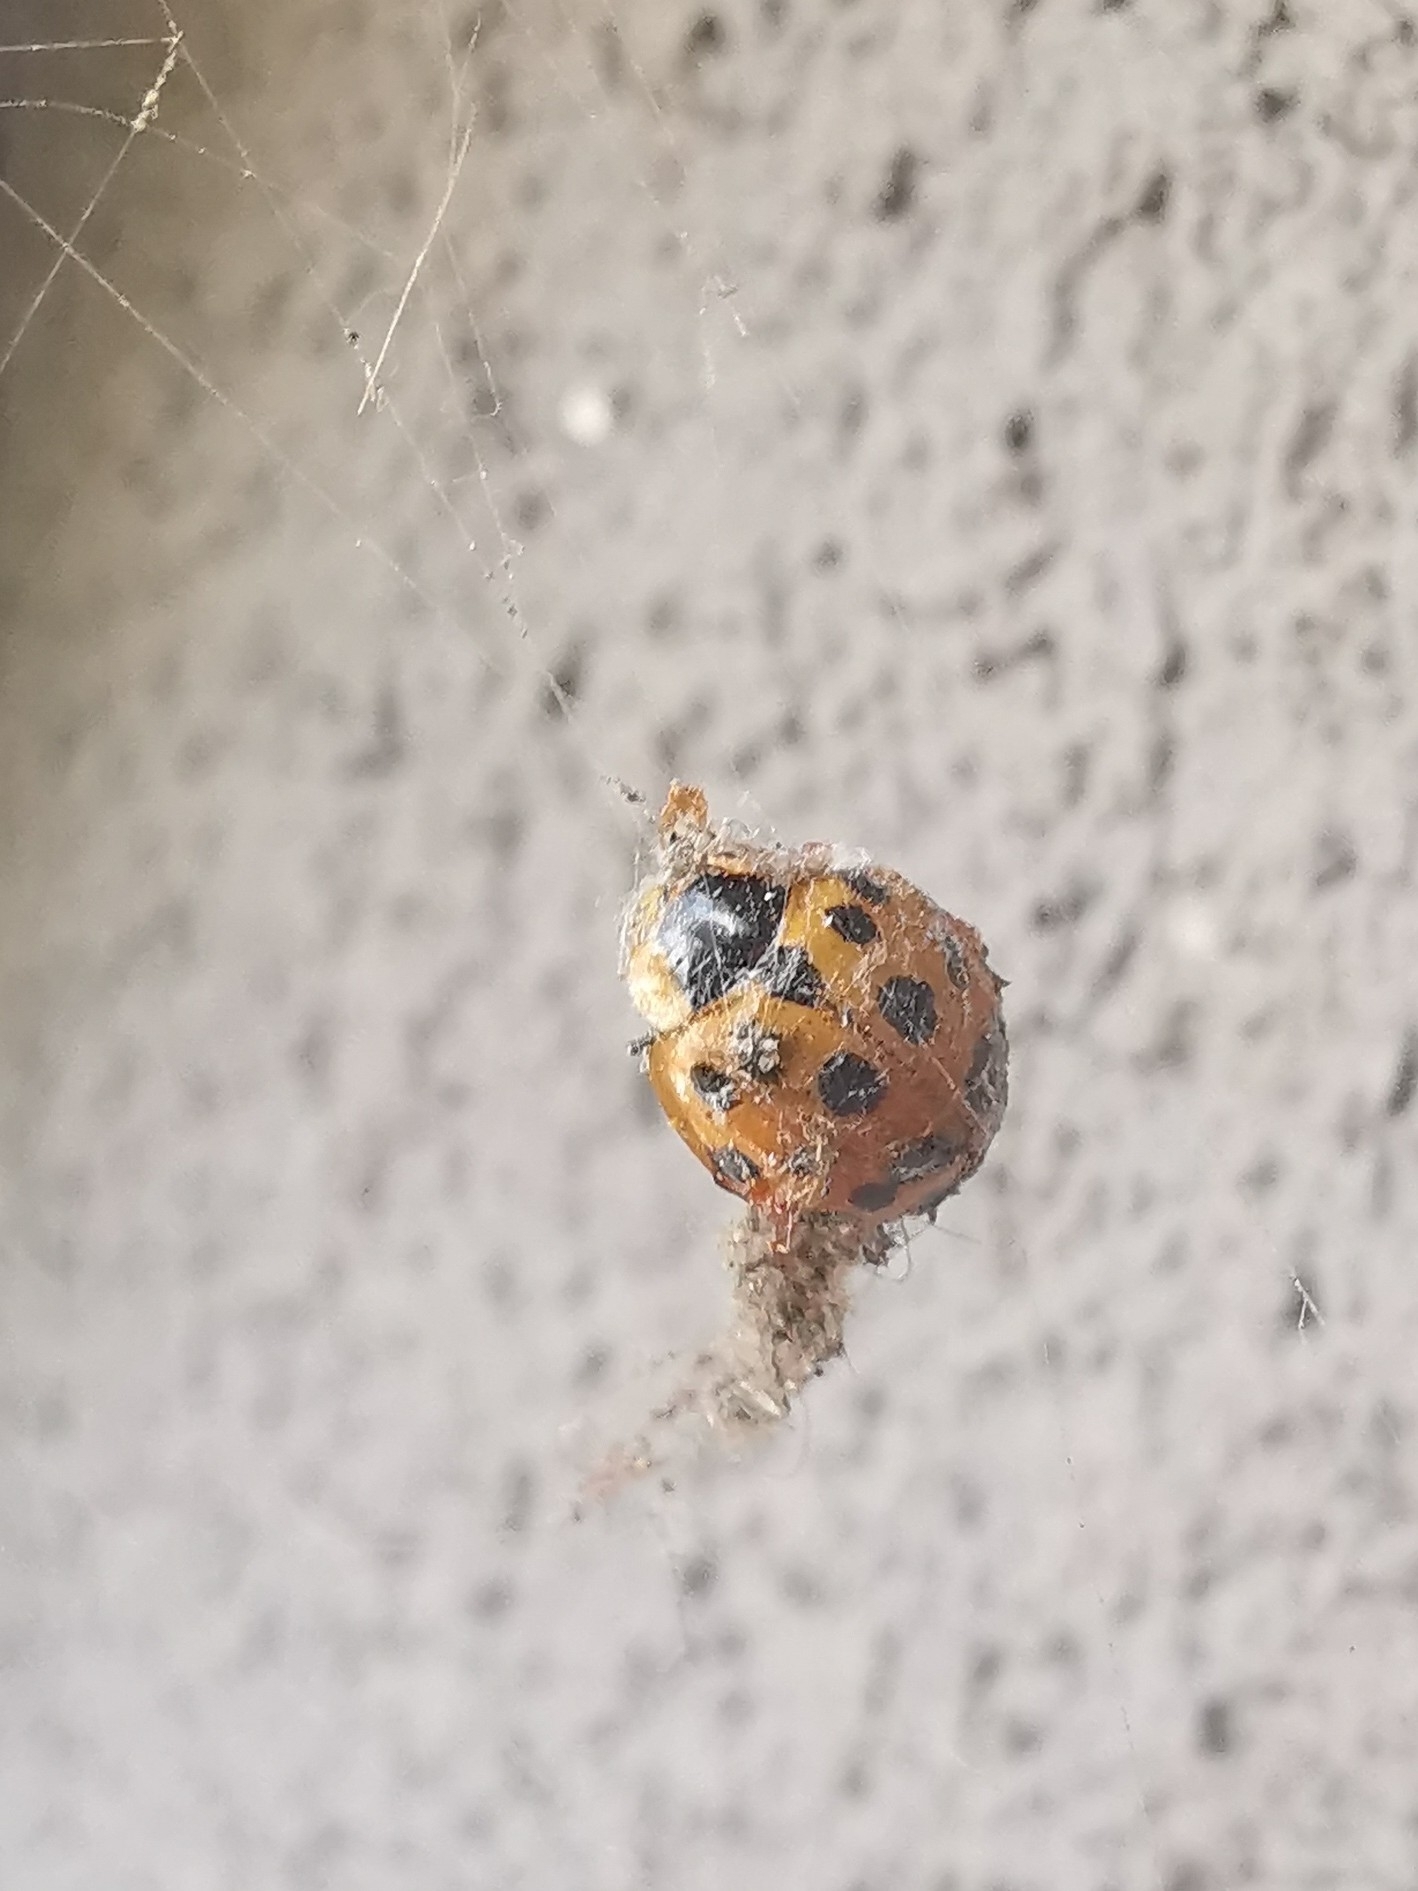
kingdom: Animalia
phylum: Arthropoda
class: Insecta
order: Coleoptera
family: Coccinellidae
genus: Harmonia
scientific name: Harmonia axyridis
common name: Harlequin ladybird
